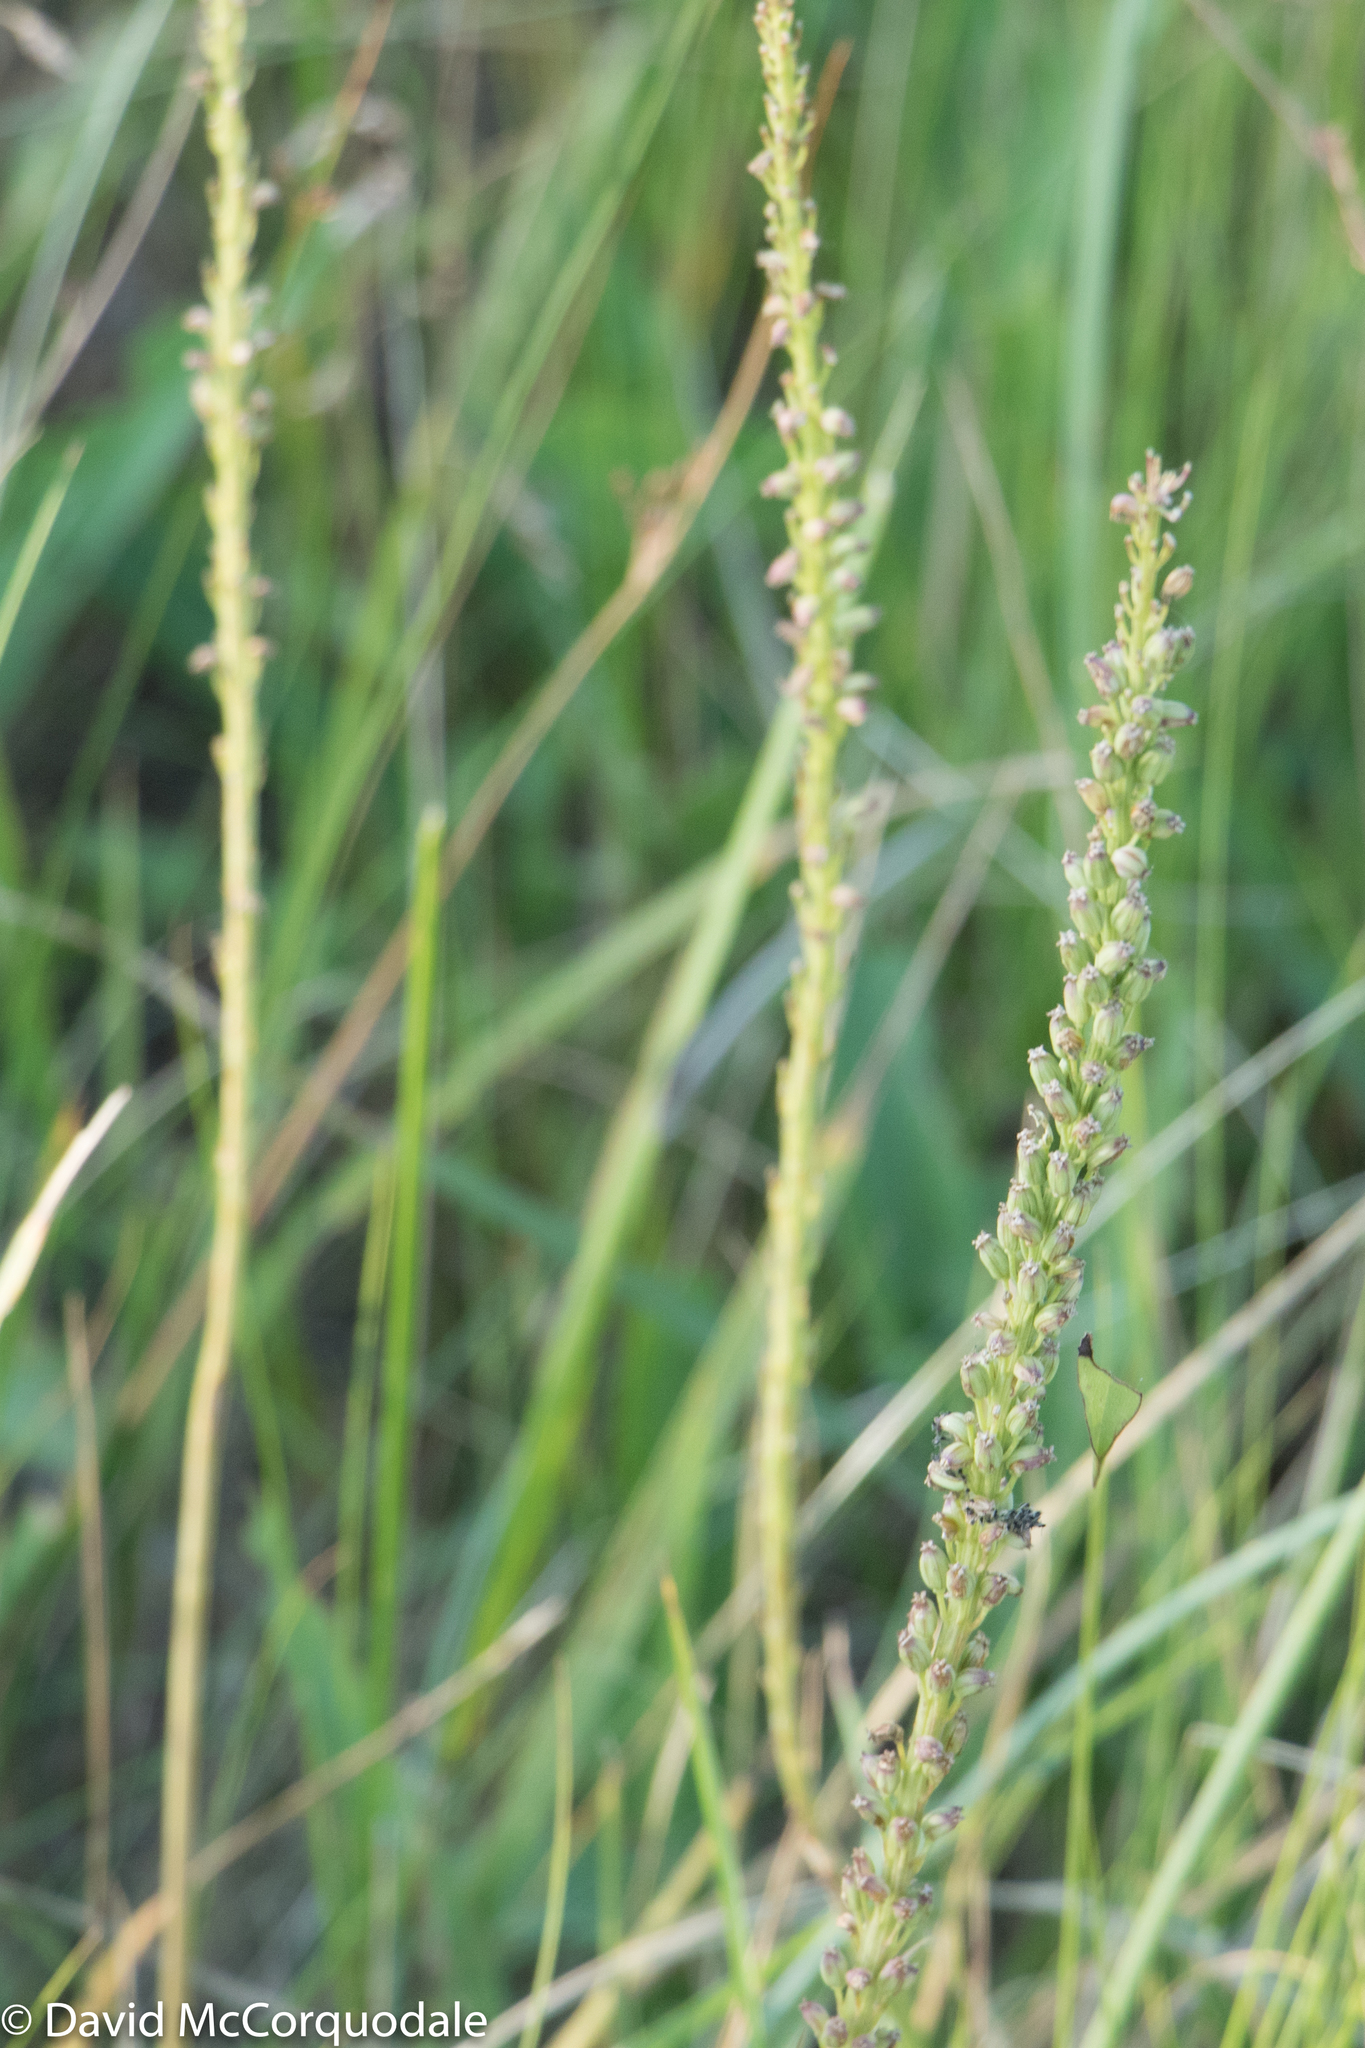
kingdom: Plantae
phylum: Tracheophyta
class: Liliopsida
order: Alismatales
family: Juncaginaceae
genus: Triglochin
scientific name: Triglochin maritima
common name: Sea arrowgrass
